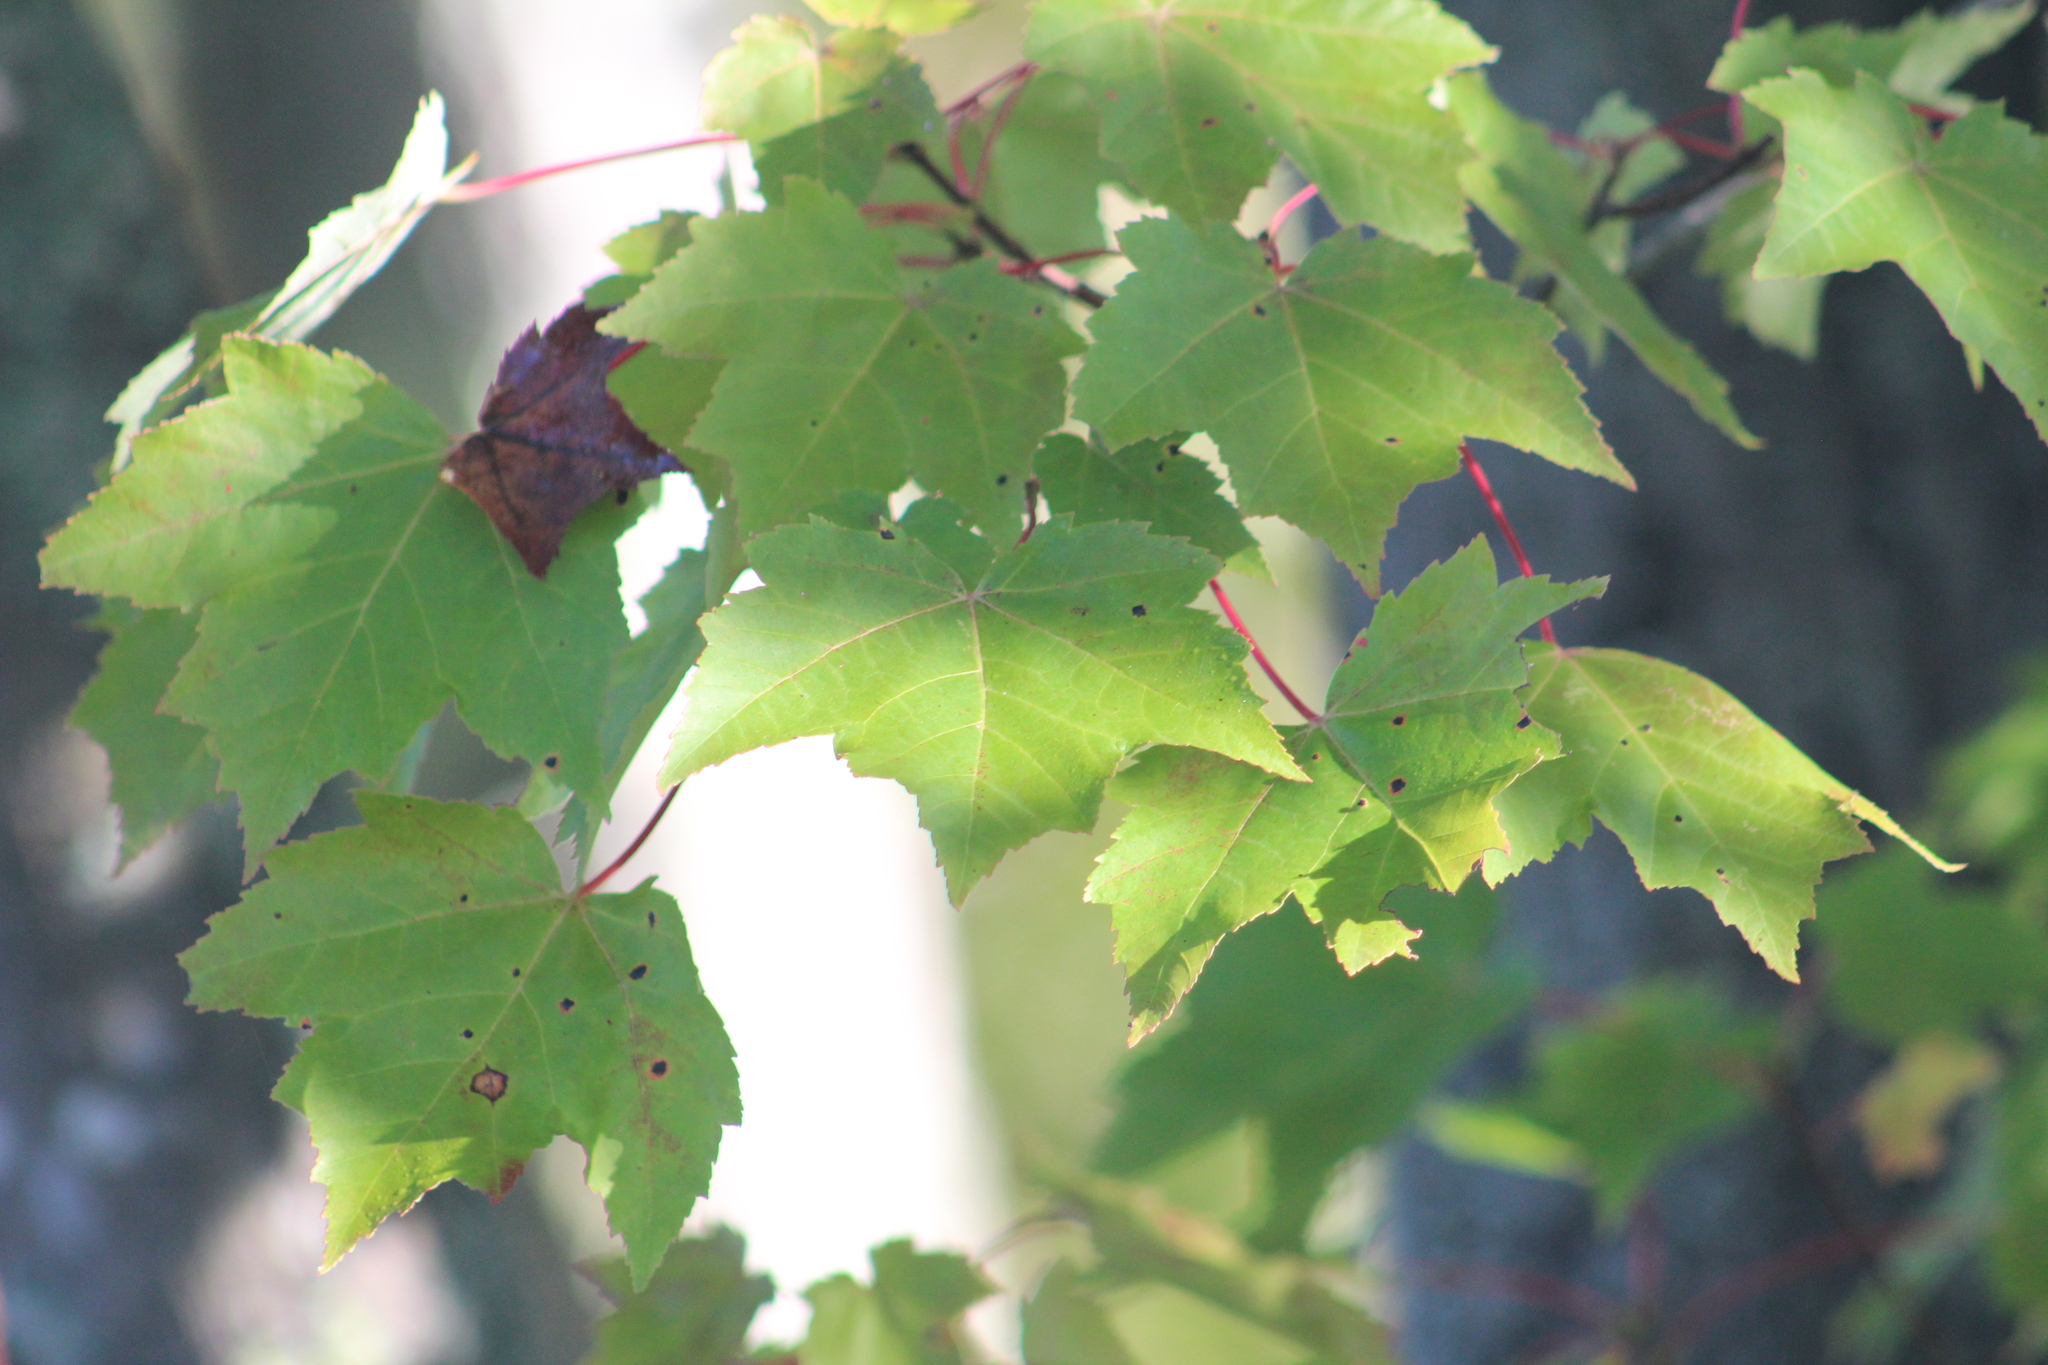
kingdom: Plantae
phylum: Tracheophyta
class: Magnoliopsida
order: Sapindales
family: Sapindaceae
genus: Acer
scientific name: Acer rubrum
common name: Red maple
